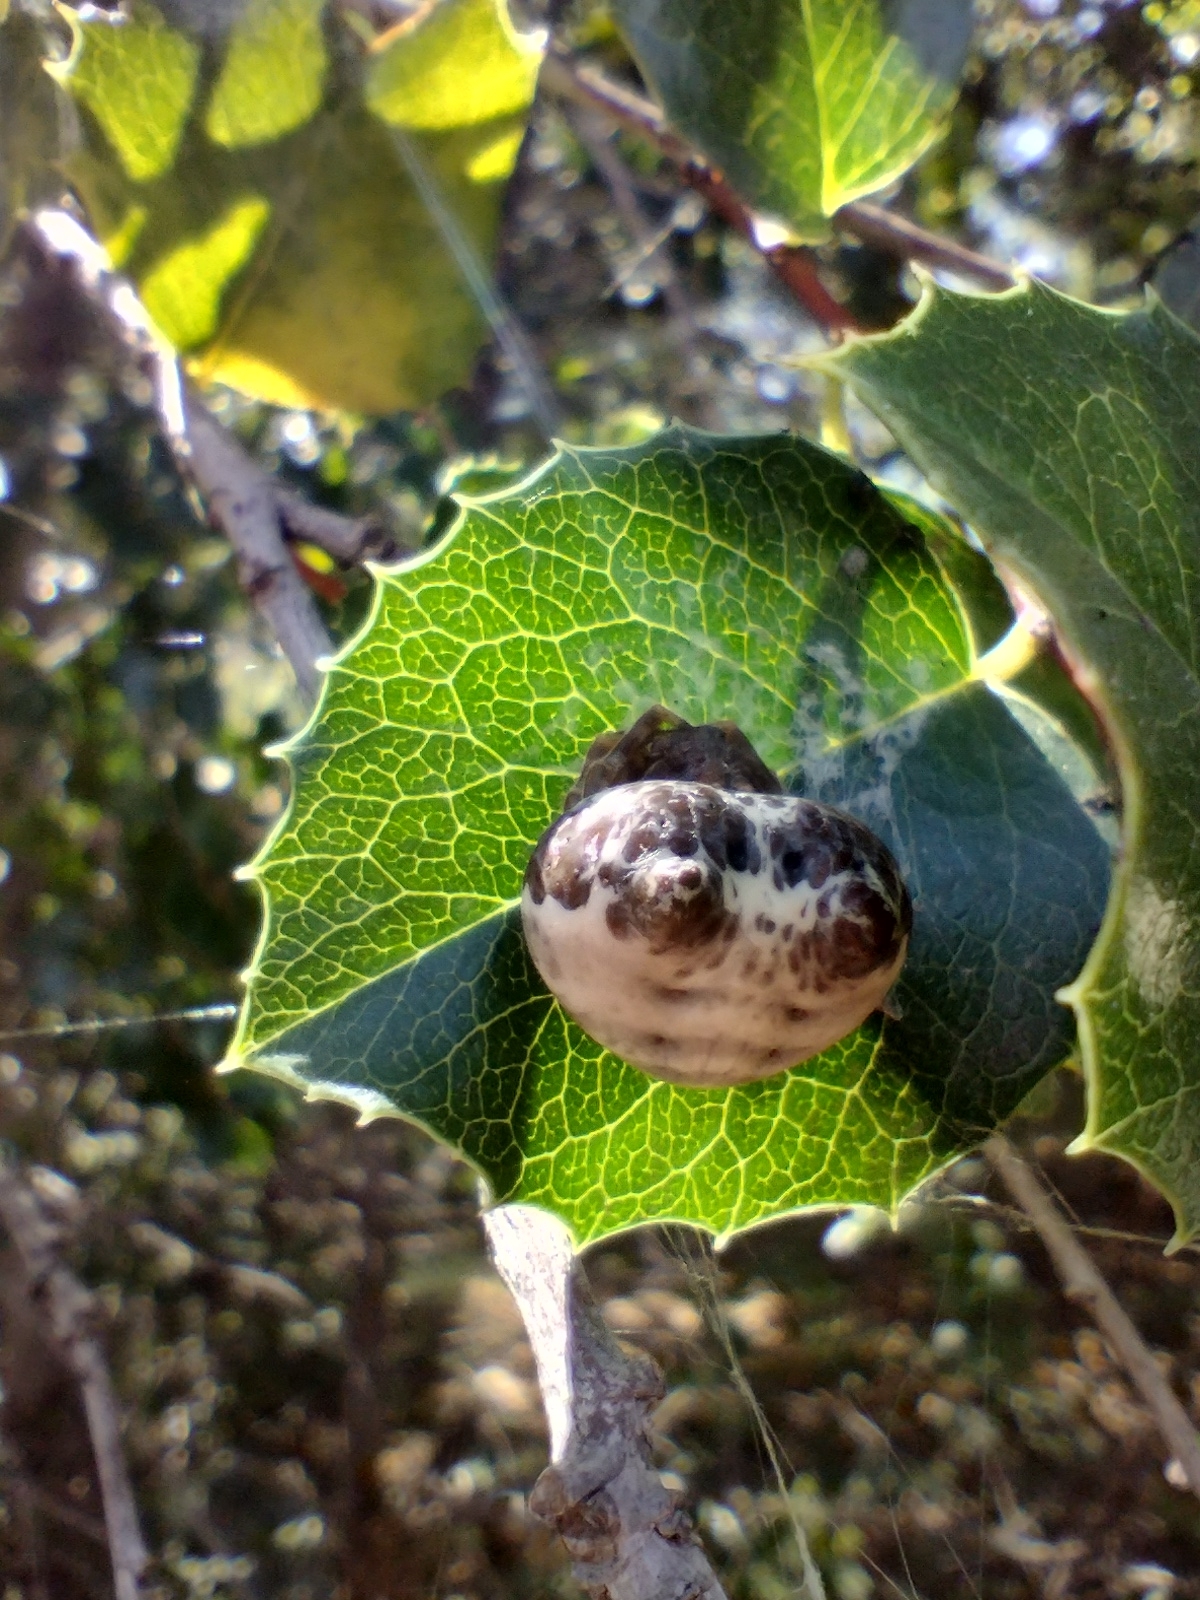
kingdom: Animalia
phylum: Arthropoda
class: Arachnida
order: Araneae
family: Araneidae
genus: Mastophora
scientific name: Mastophora cornigera
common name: Orb weavers
